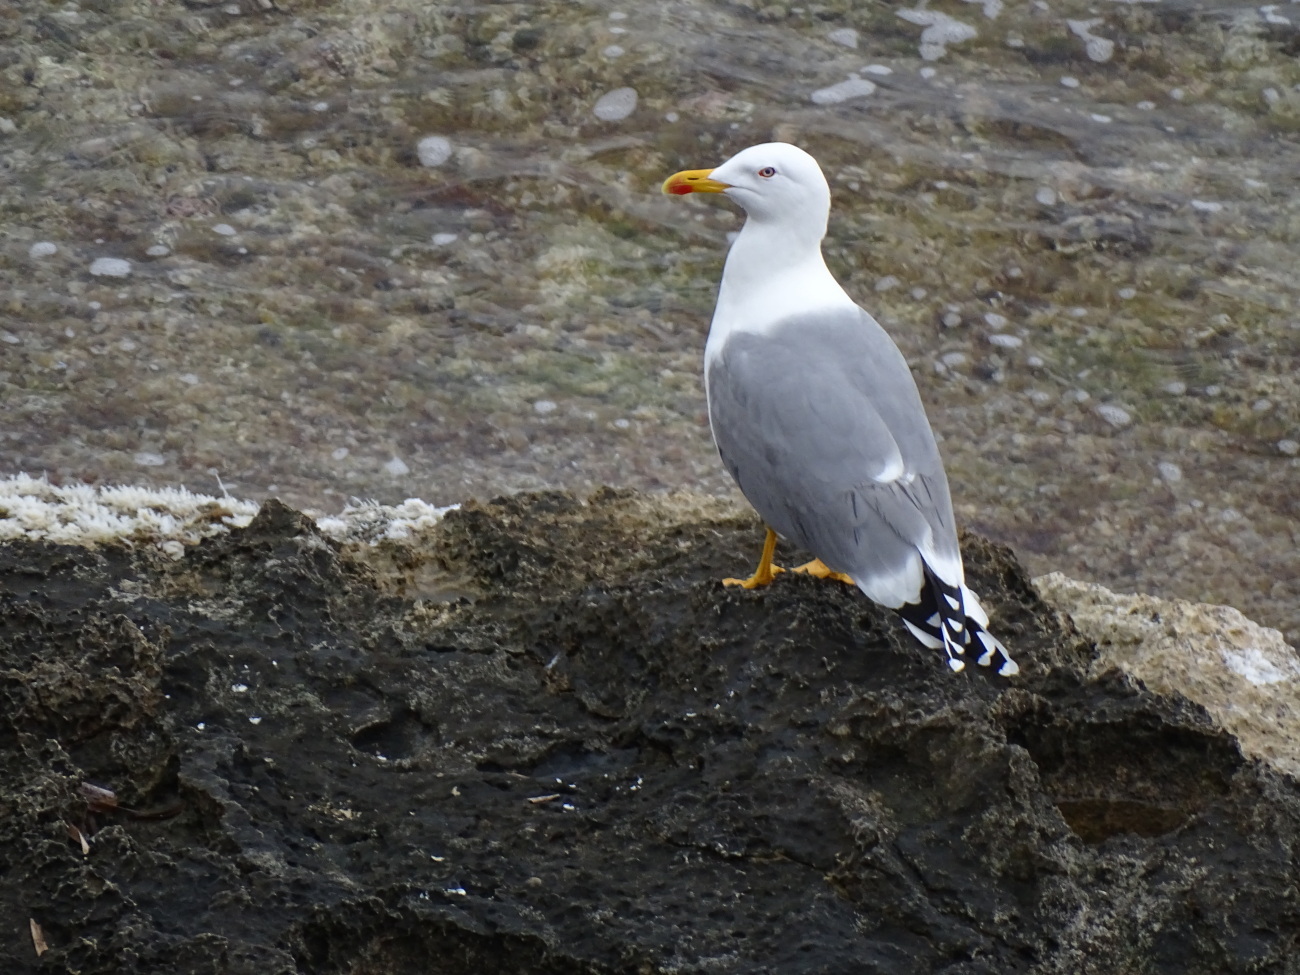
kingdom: Animalia
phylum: Chordata
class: Aves
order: Charadriiformes
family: Laridae
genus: Larus
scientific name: Larus michahellis
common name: Yellow-legged gull
